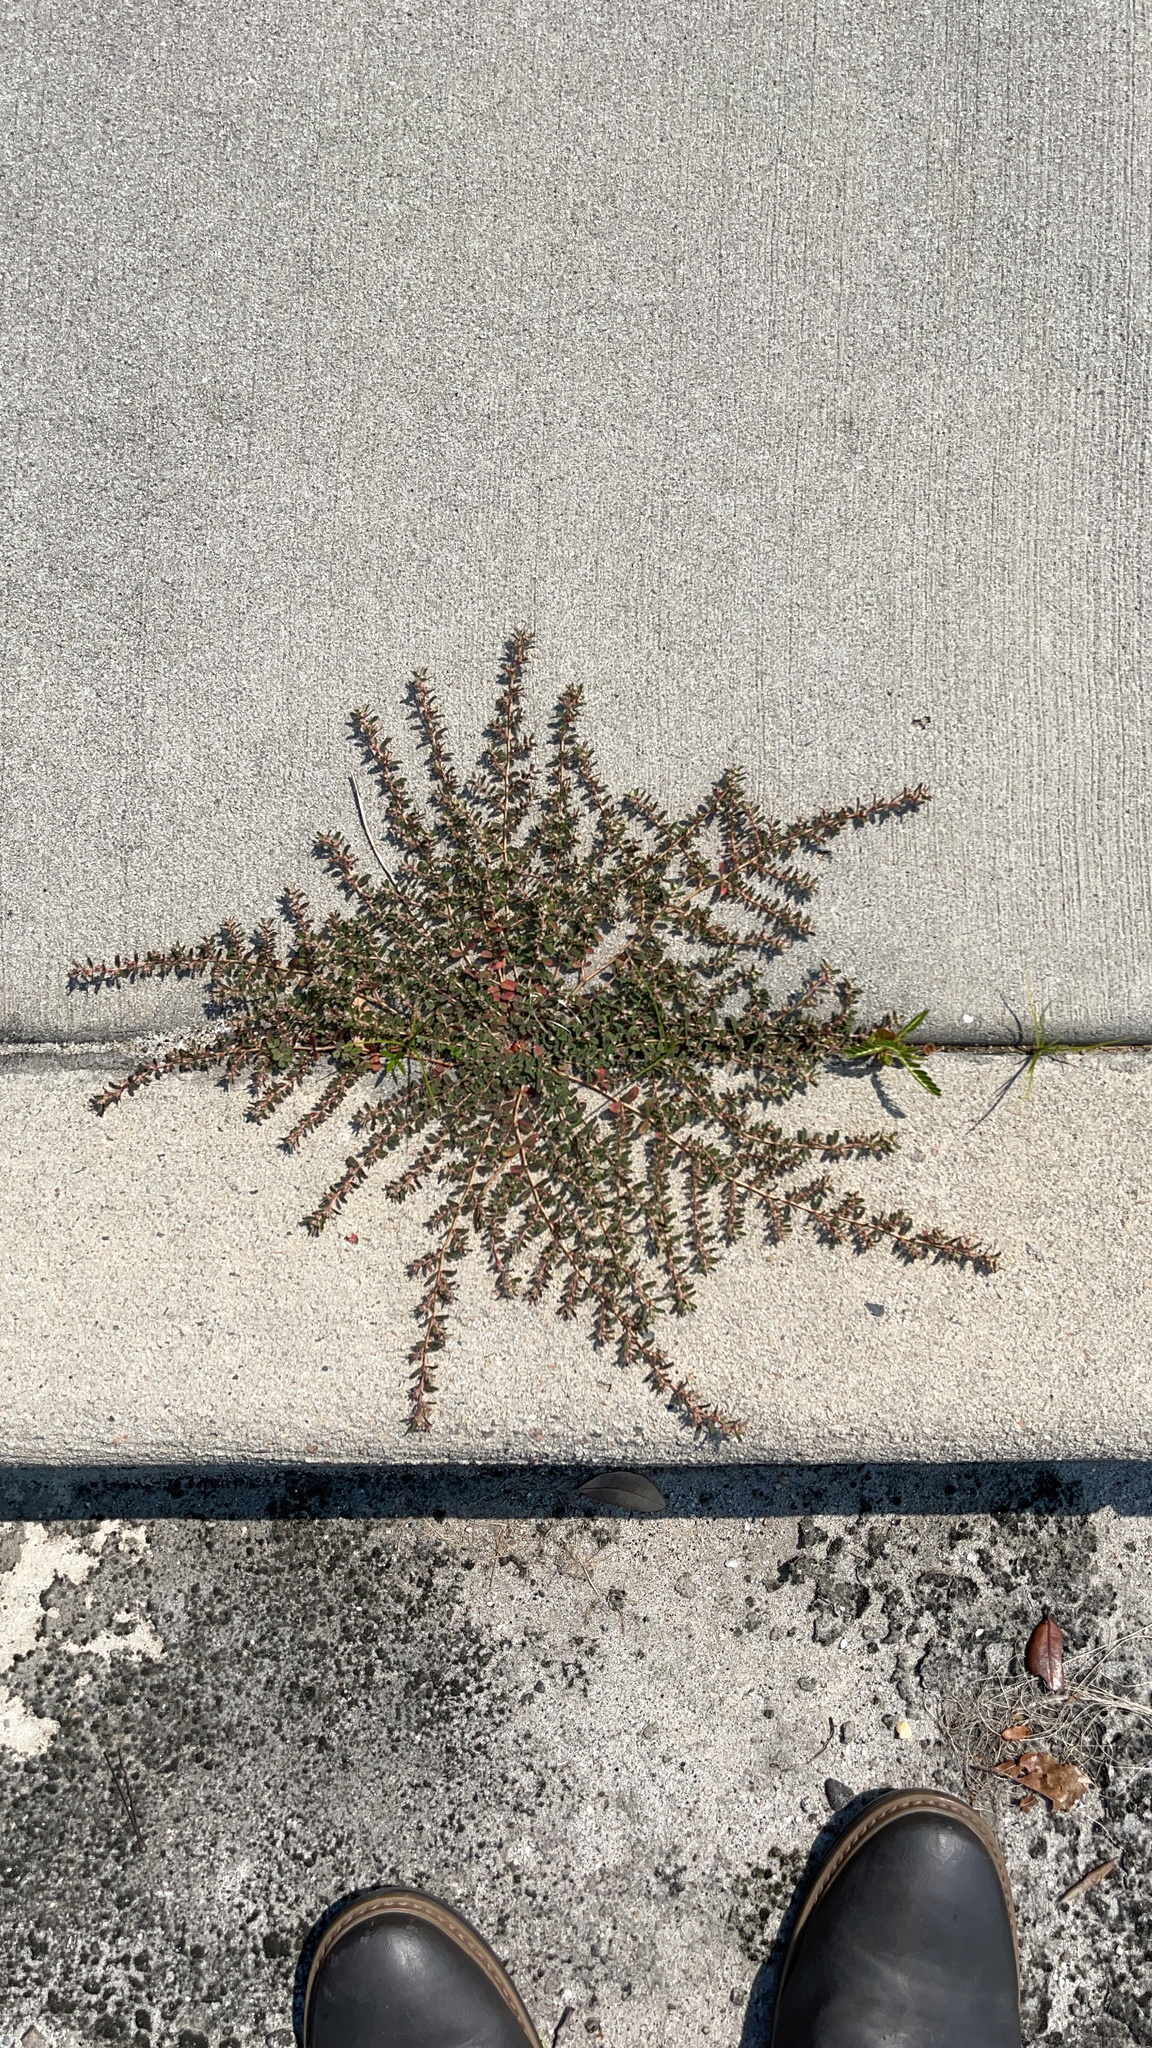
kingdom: Plantae
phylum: Tracheophyta
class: Magnoliopsida
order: Malpighiales
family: Euphorbiaceae
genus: Euphorbia
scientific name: Euphorbia maculata
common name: Spotted spurge
